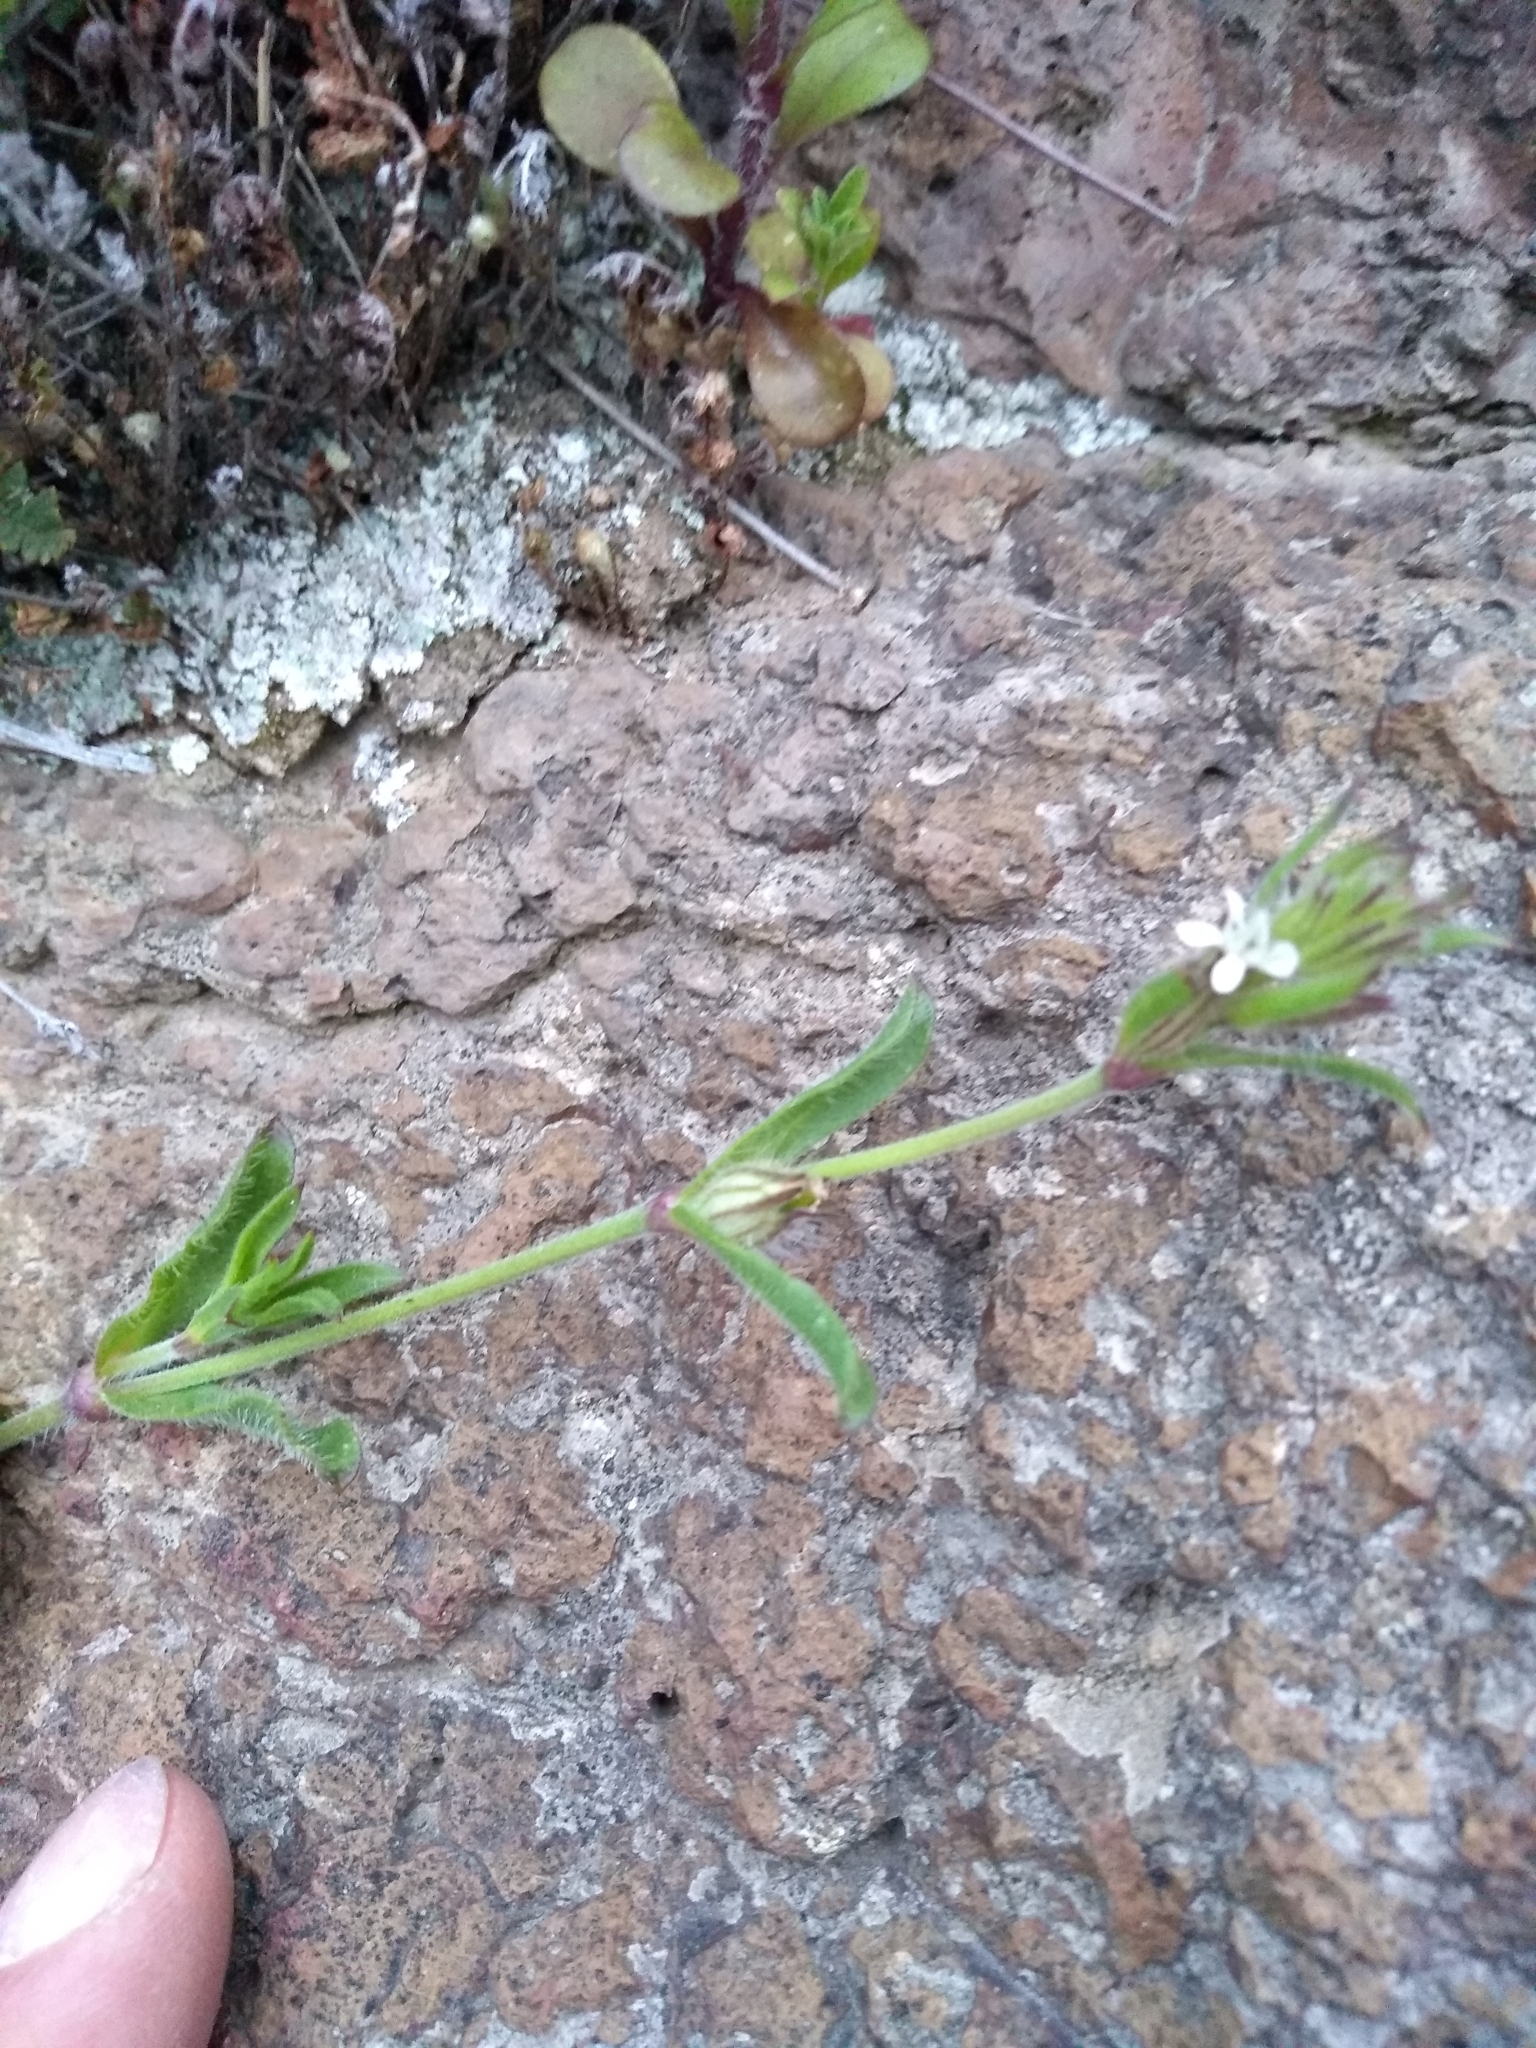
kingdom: Plantae
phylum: Tracheophyta
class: Magnoliopsida
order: Caryophyllales
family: Caryophyllaceae
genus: Silene
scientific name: Silene gallica
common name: Small-flowered catchfly
